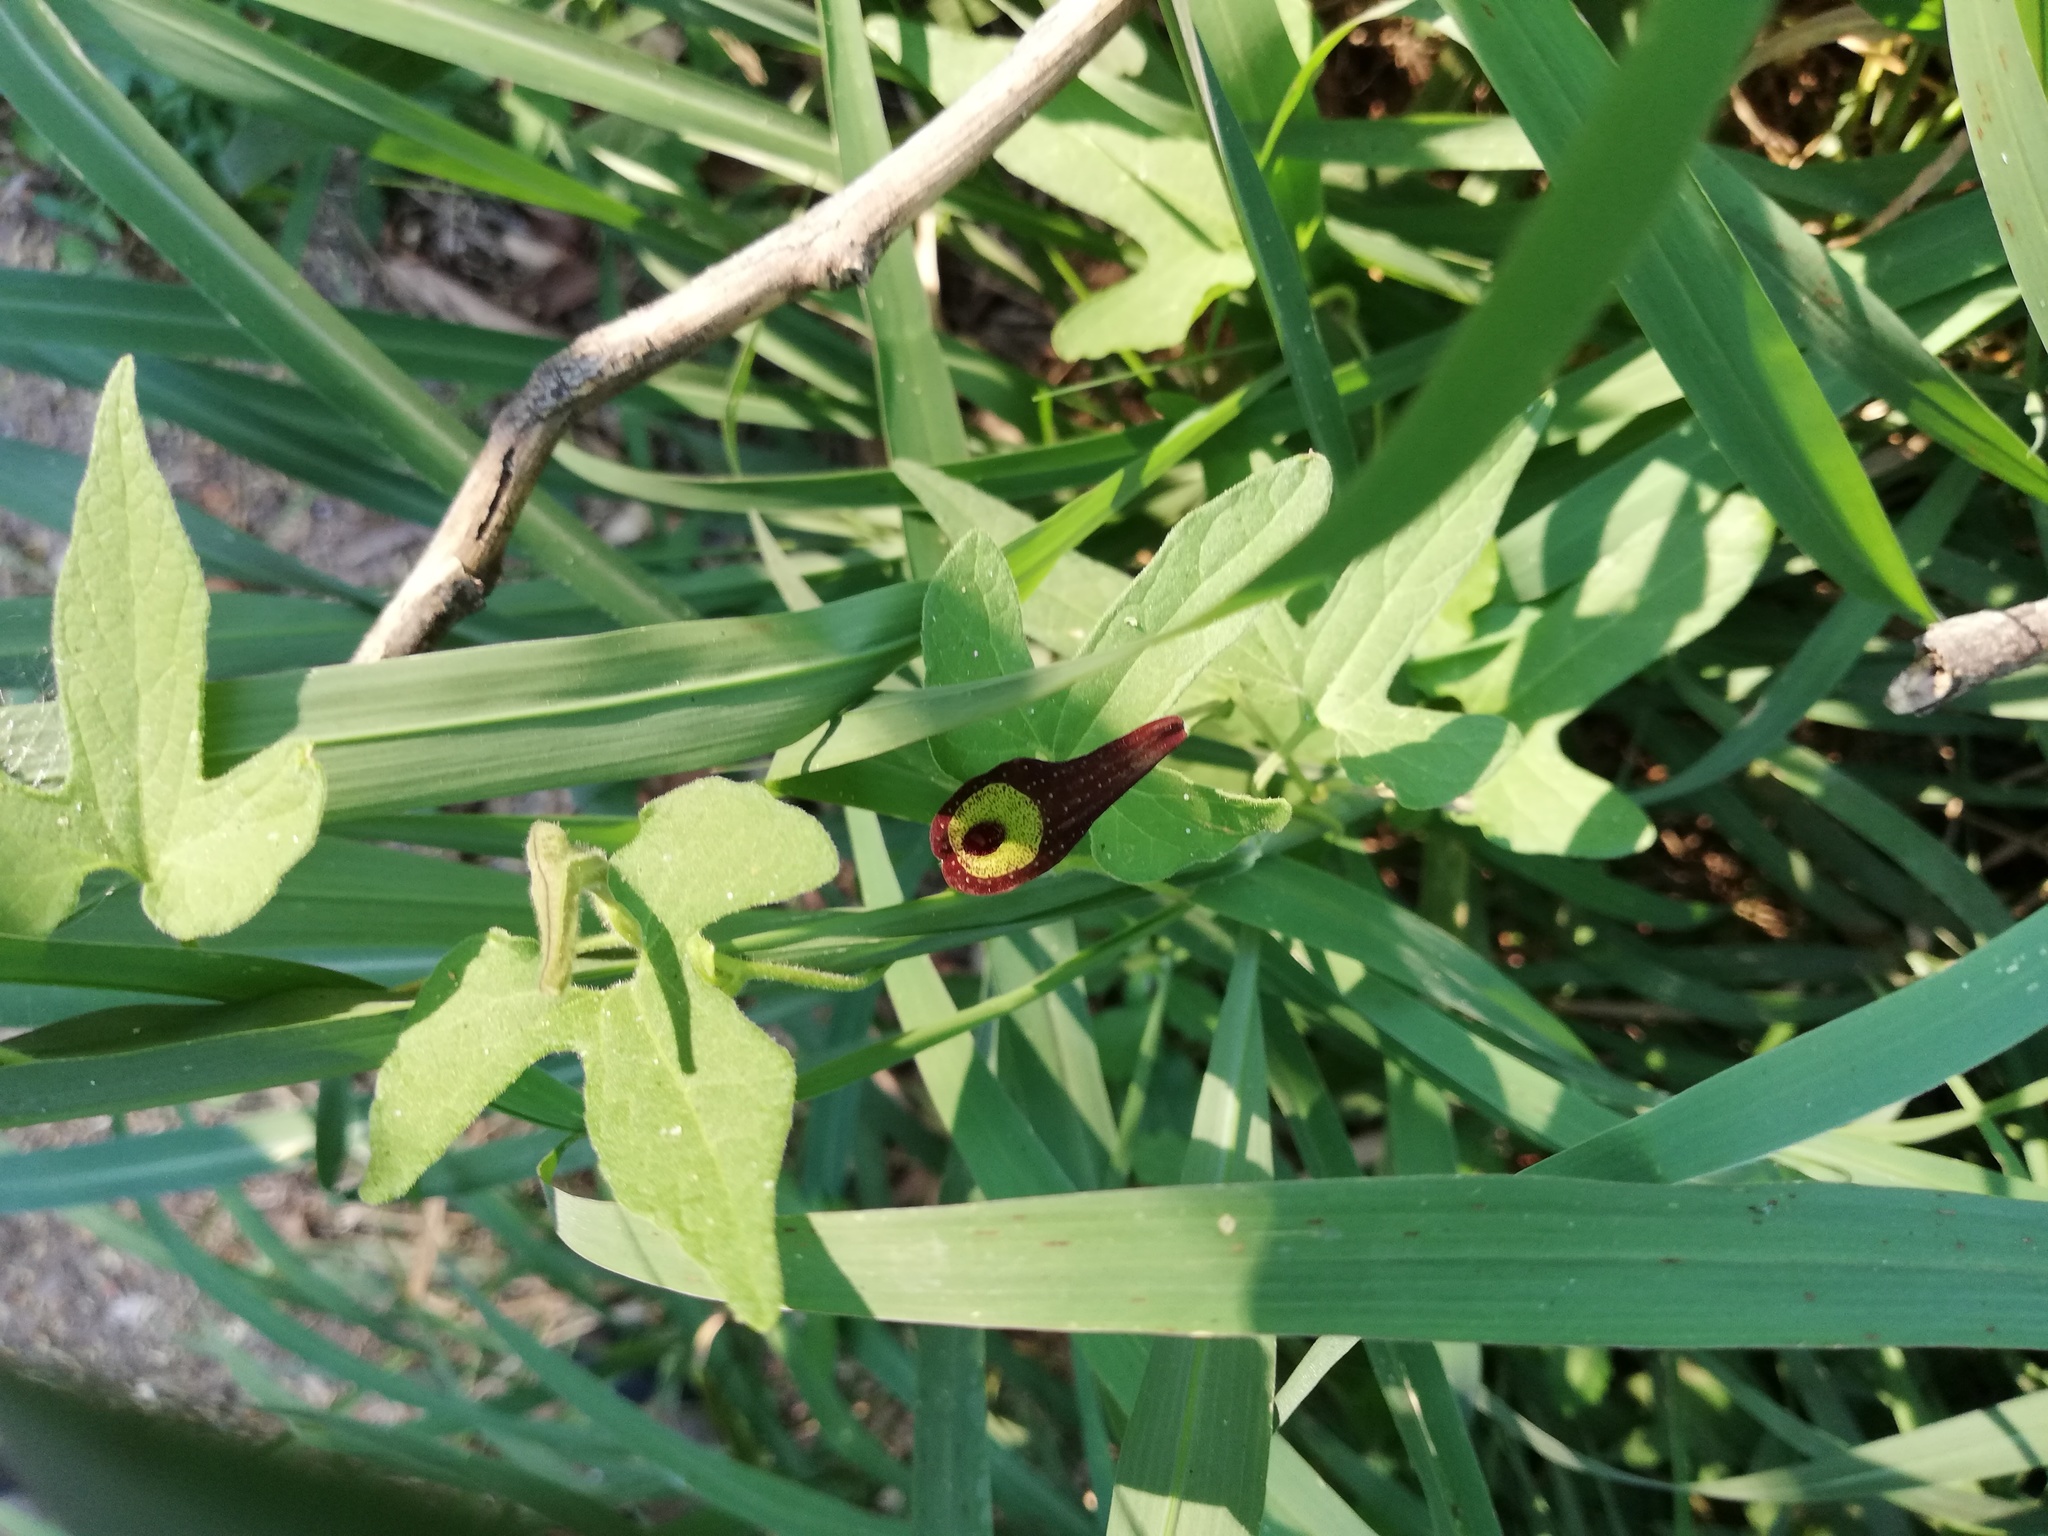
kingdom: Plantae
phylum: Tracheophyta
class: Magnoliopsida
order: Piperales
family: Aristolochiaceae
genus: Aristolochia
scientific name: Aristolochia pentandra
